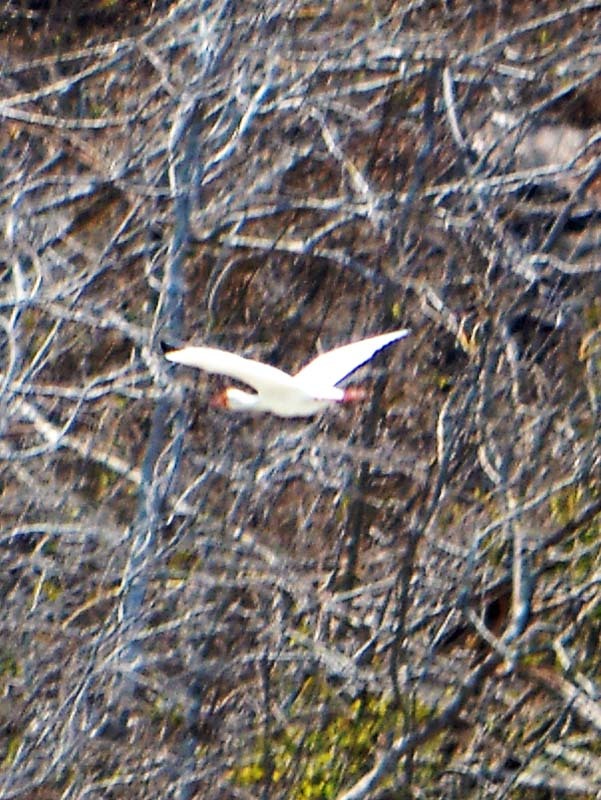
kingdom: Animalia
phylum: Chordata
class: Aves
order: Pelecaniformes
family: Threskiornithidae
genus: Eudocimus
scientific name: Eudocimus albus
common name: White ibis
